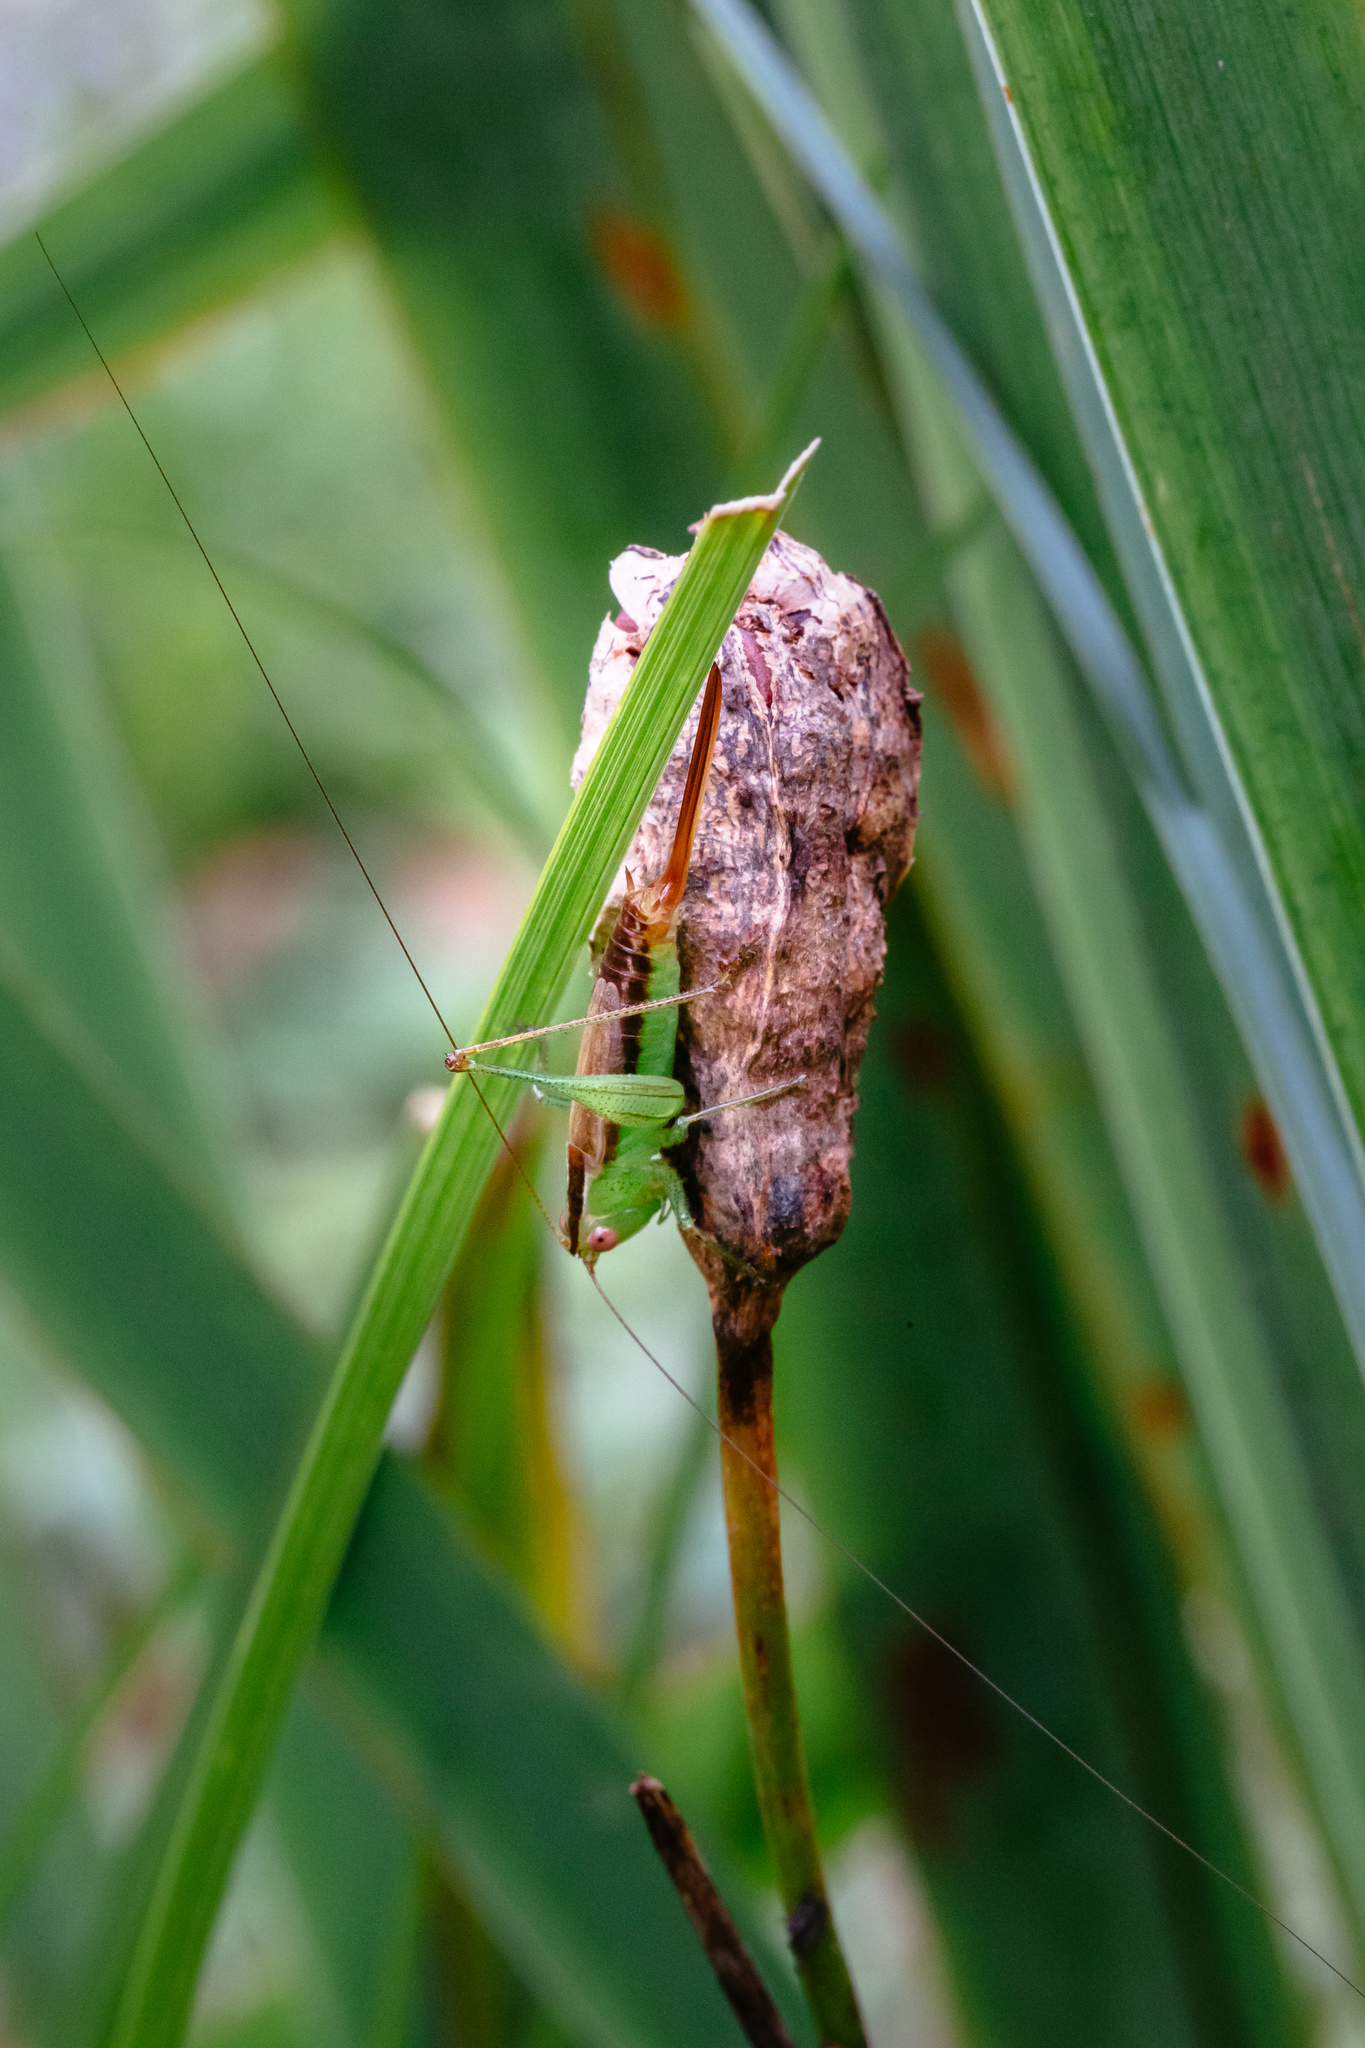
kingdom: Animalia
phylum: Arthropoda
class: Insecta
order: Orthoptera
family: Tettigoniidae
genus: Conocephalus
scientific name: Conocephalus brevipennis
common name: Short-winged meadow katydid
